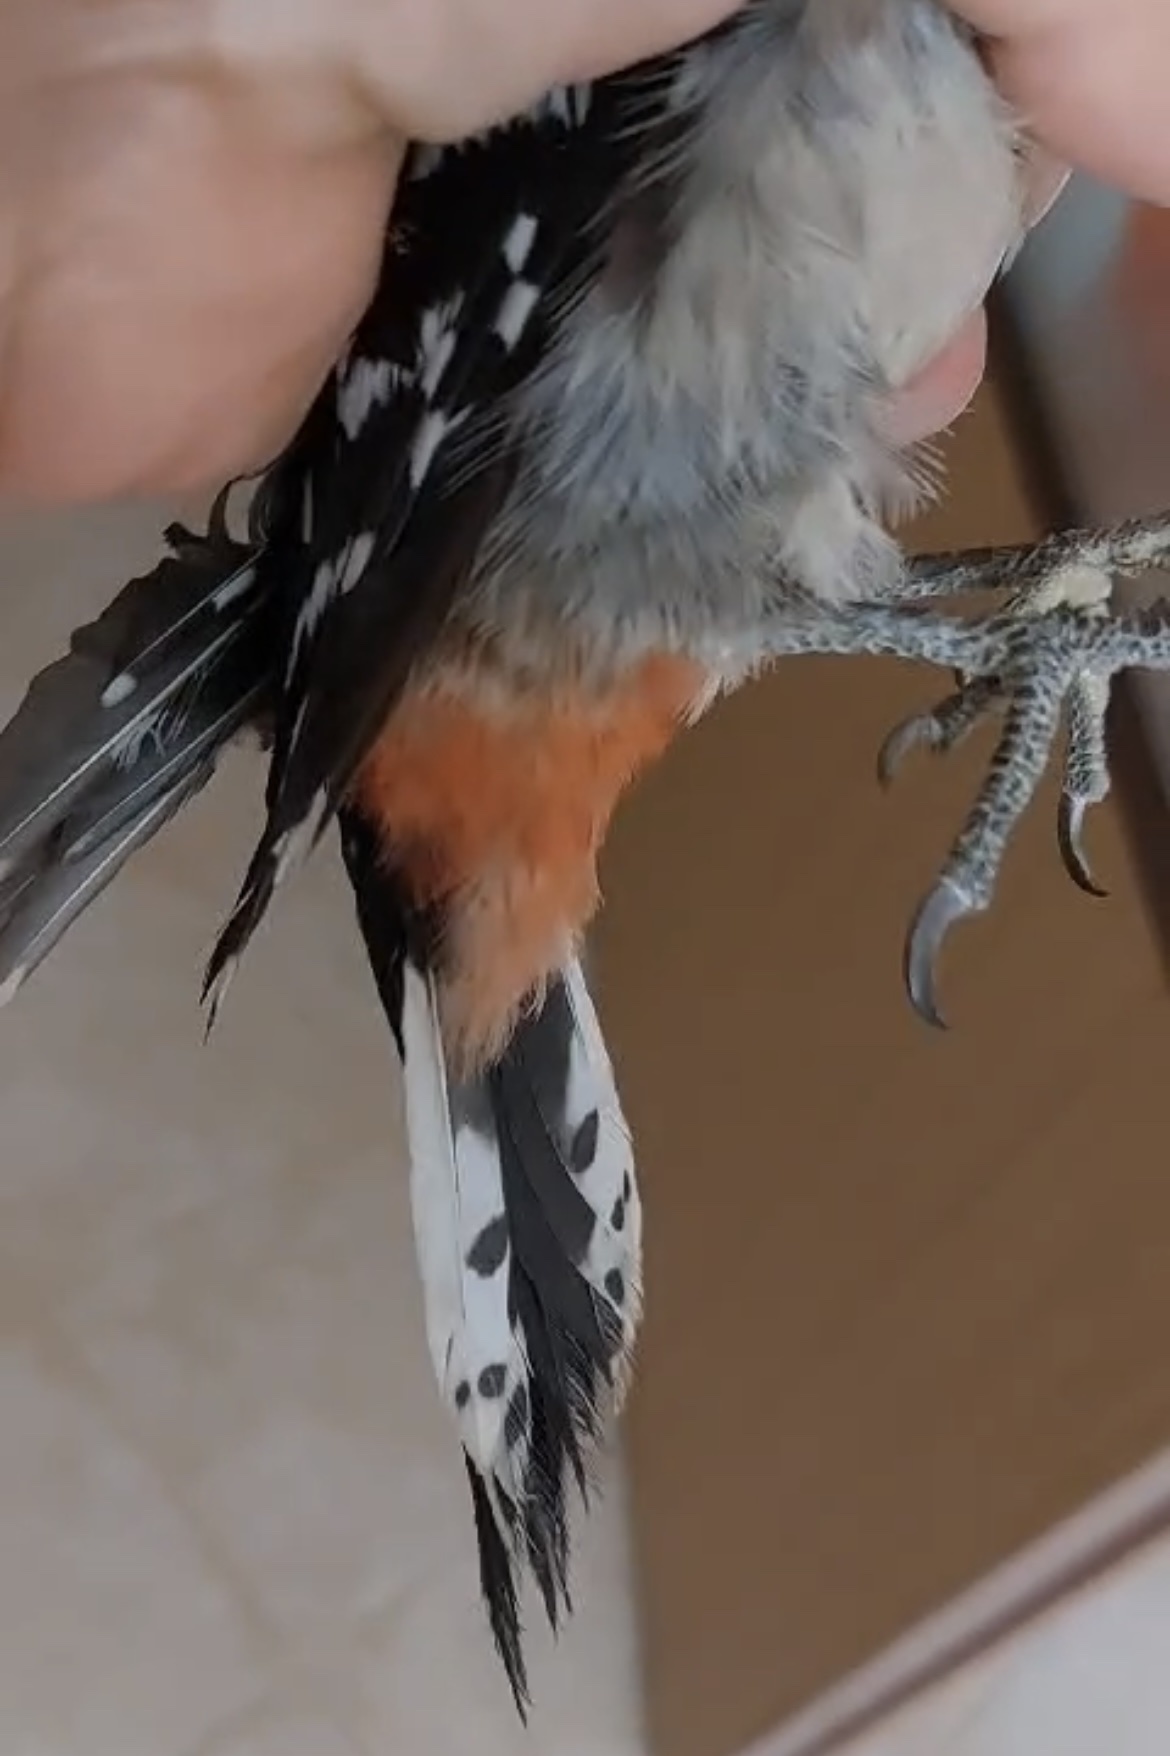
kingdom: Animalia
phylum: Chordata
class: Aves
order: Piciformes
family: Picidae
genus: Dendrocopos
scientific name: Dendrocopos major
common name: Great spotted woodpecker
